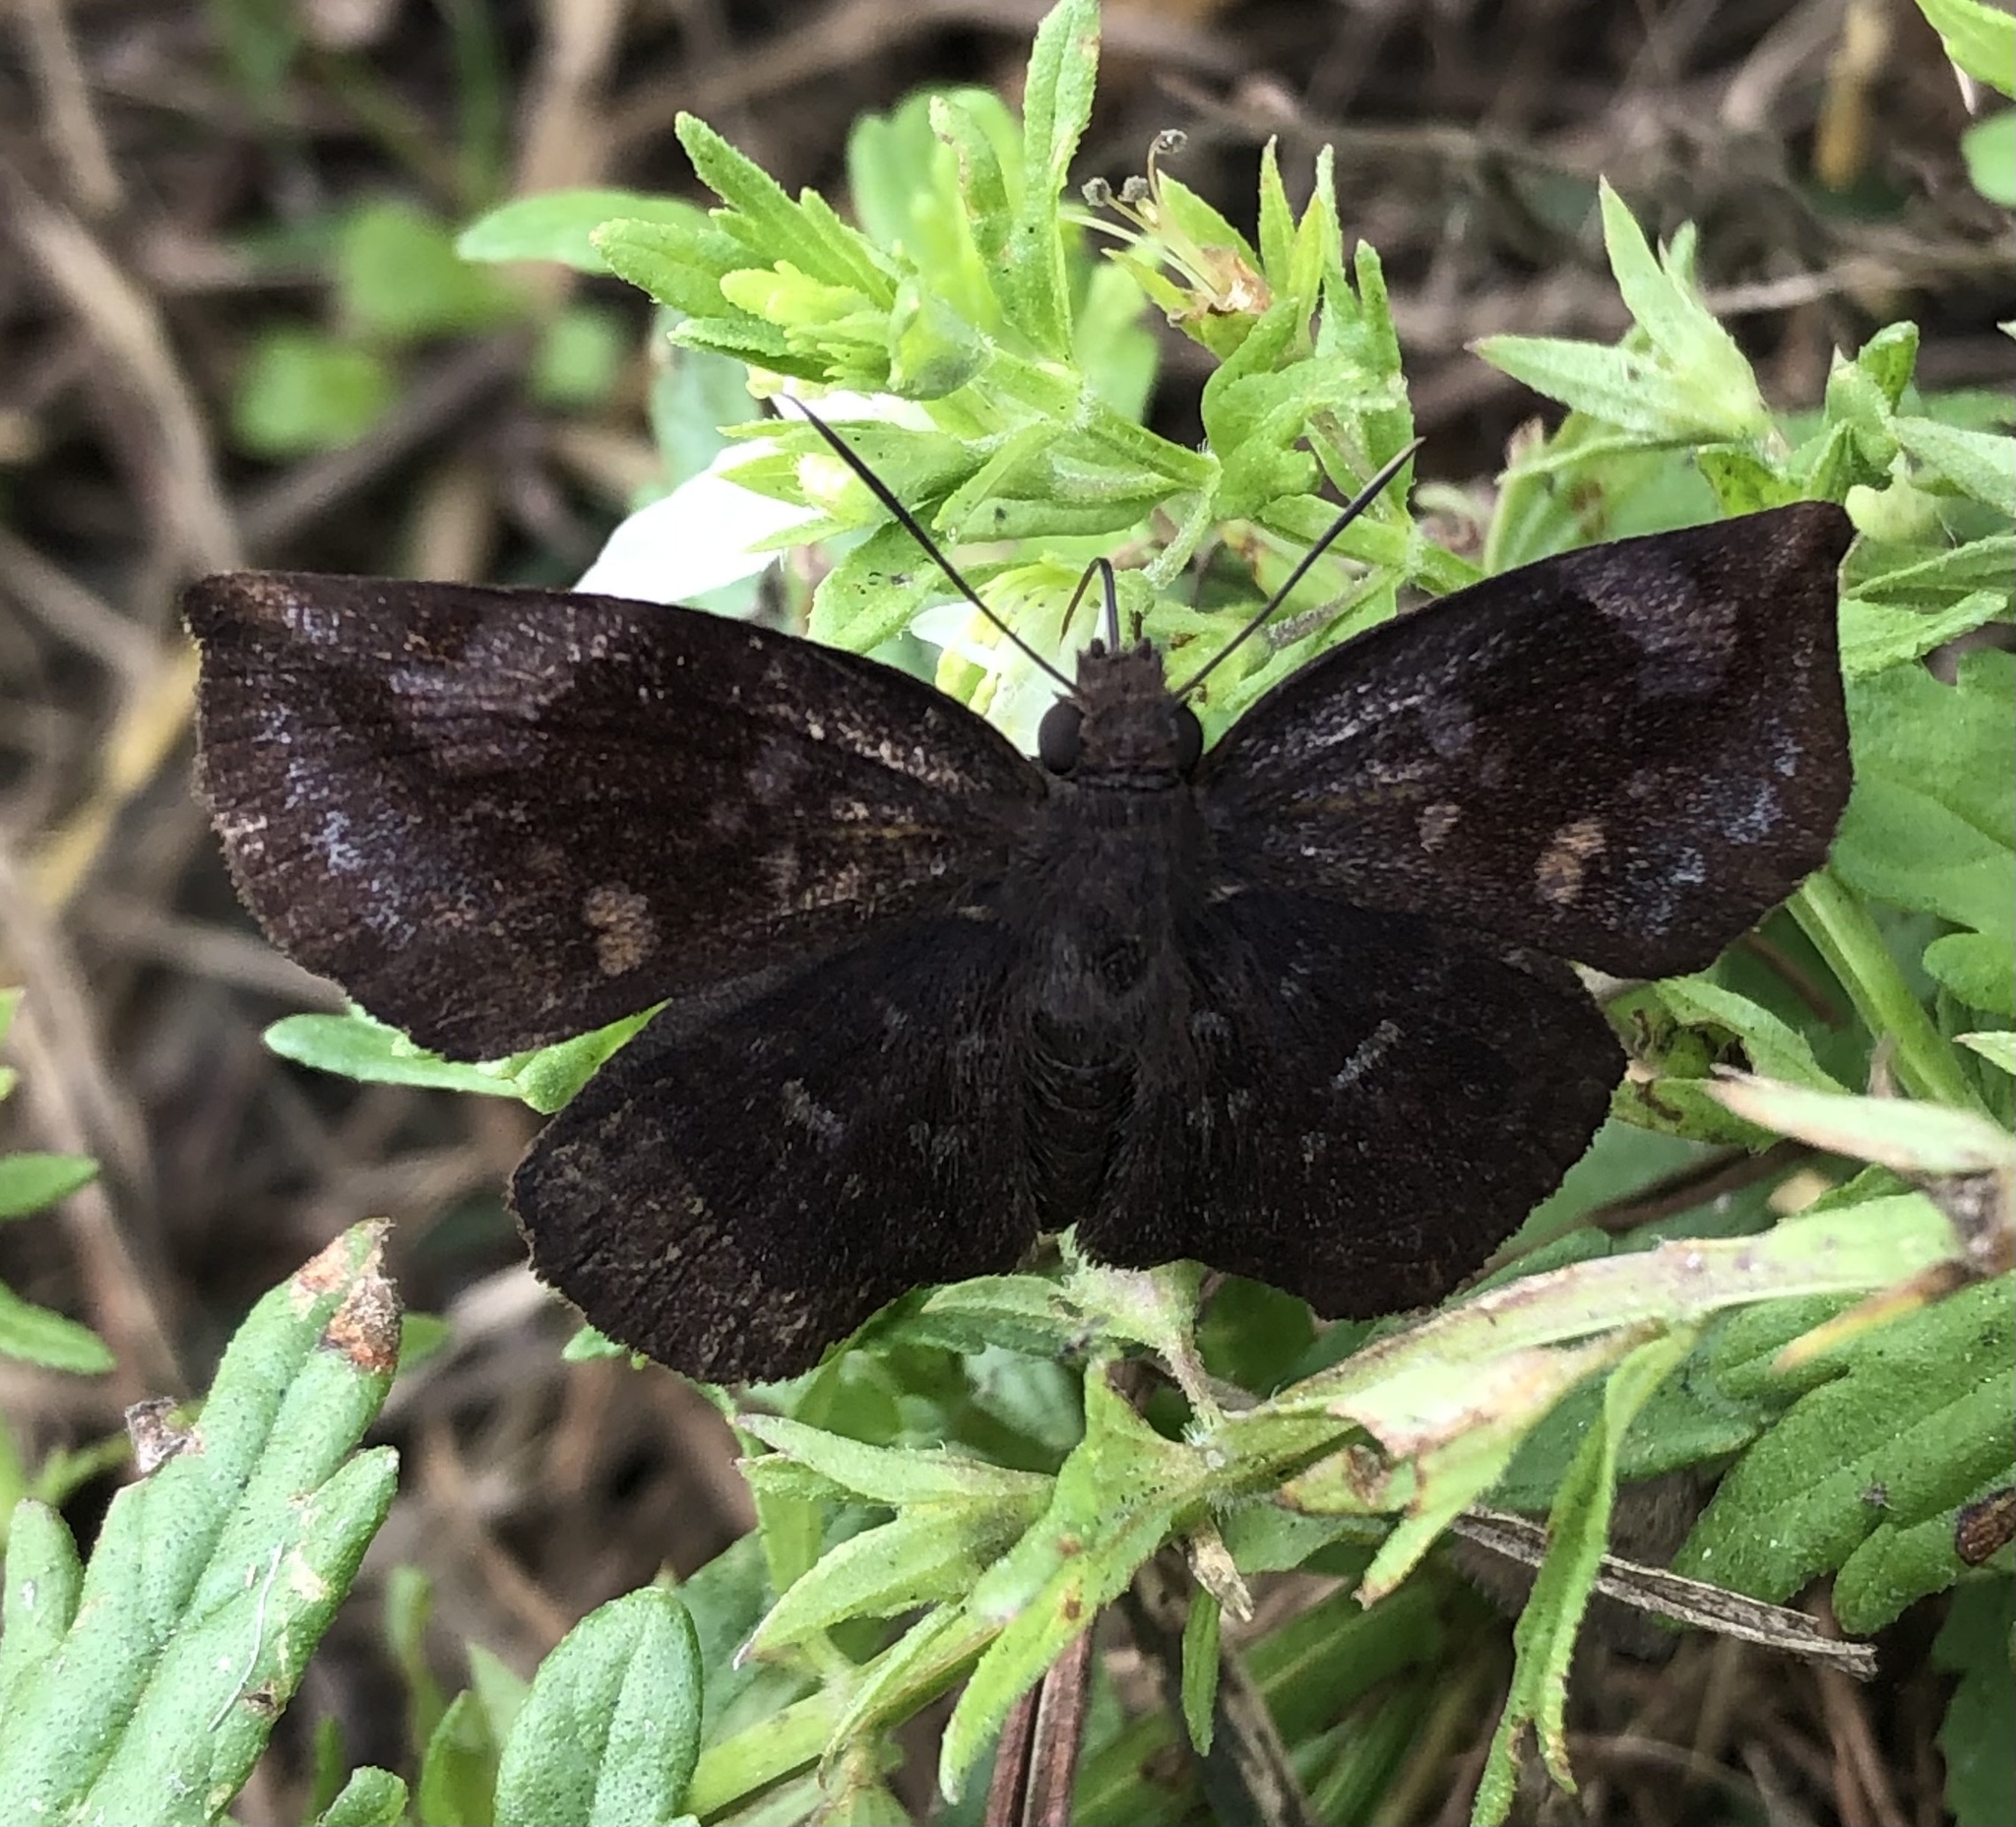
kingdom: Animalia
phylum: Arthropoda
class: Insecta
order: Lepidoptera
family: Hesperiidae
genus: Achlyodes
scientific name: Achlyodes thraso
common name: Sickle-winged skipper
